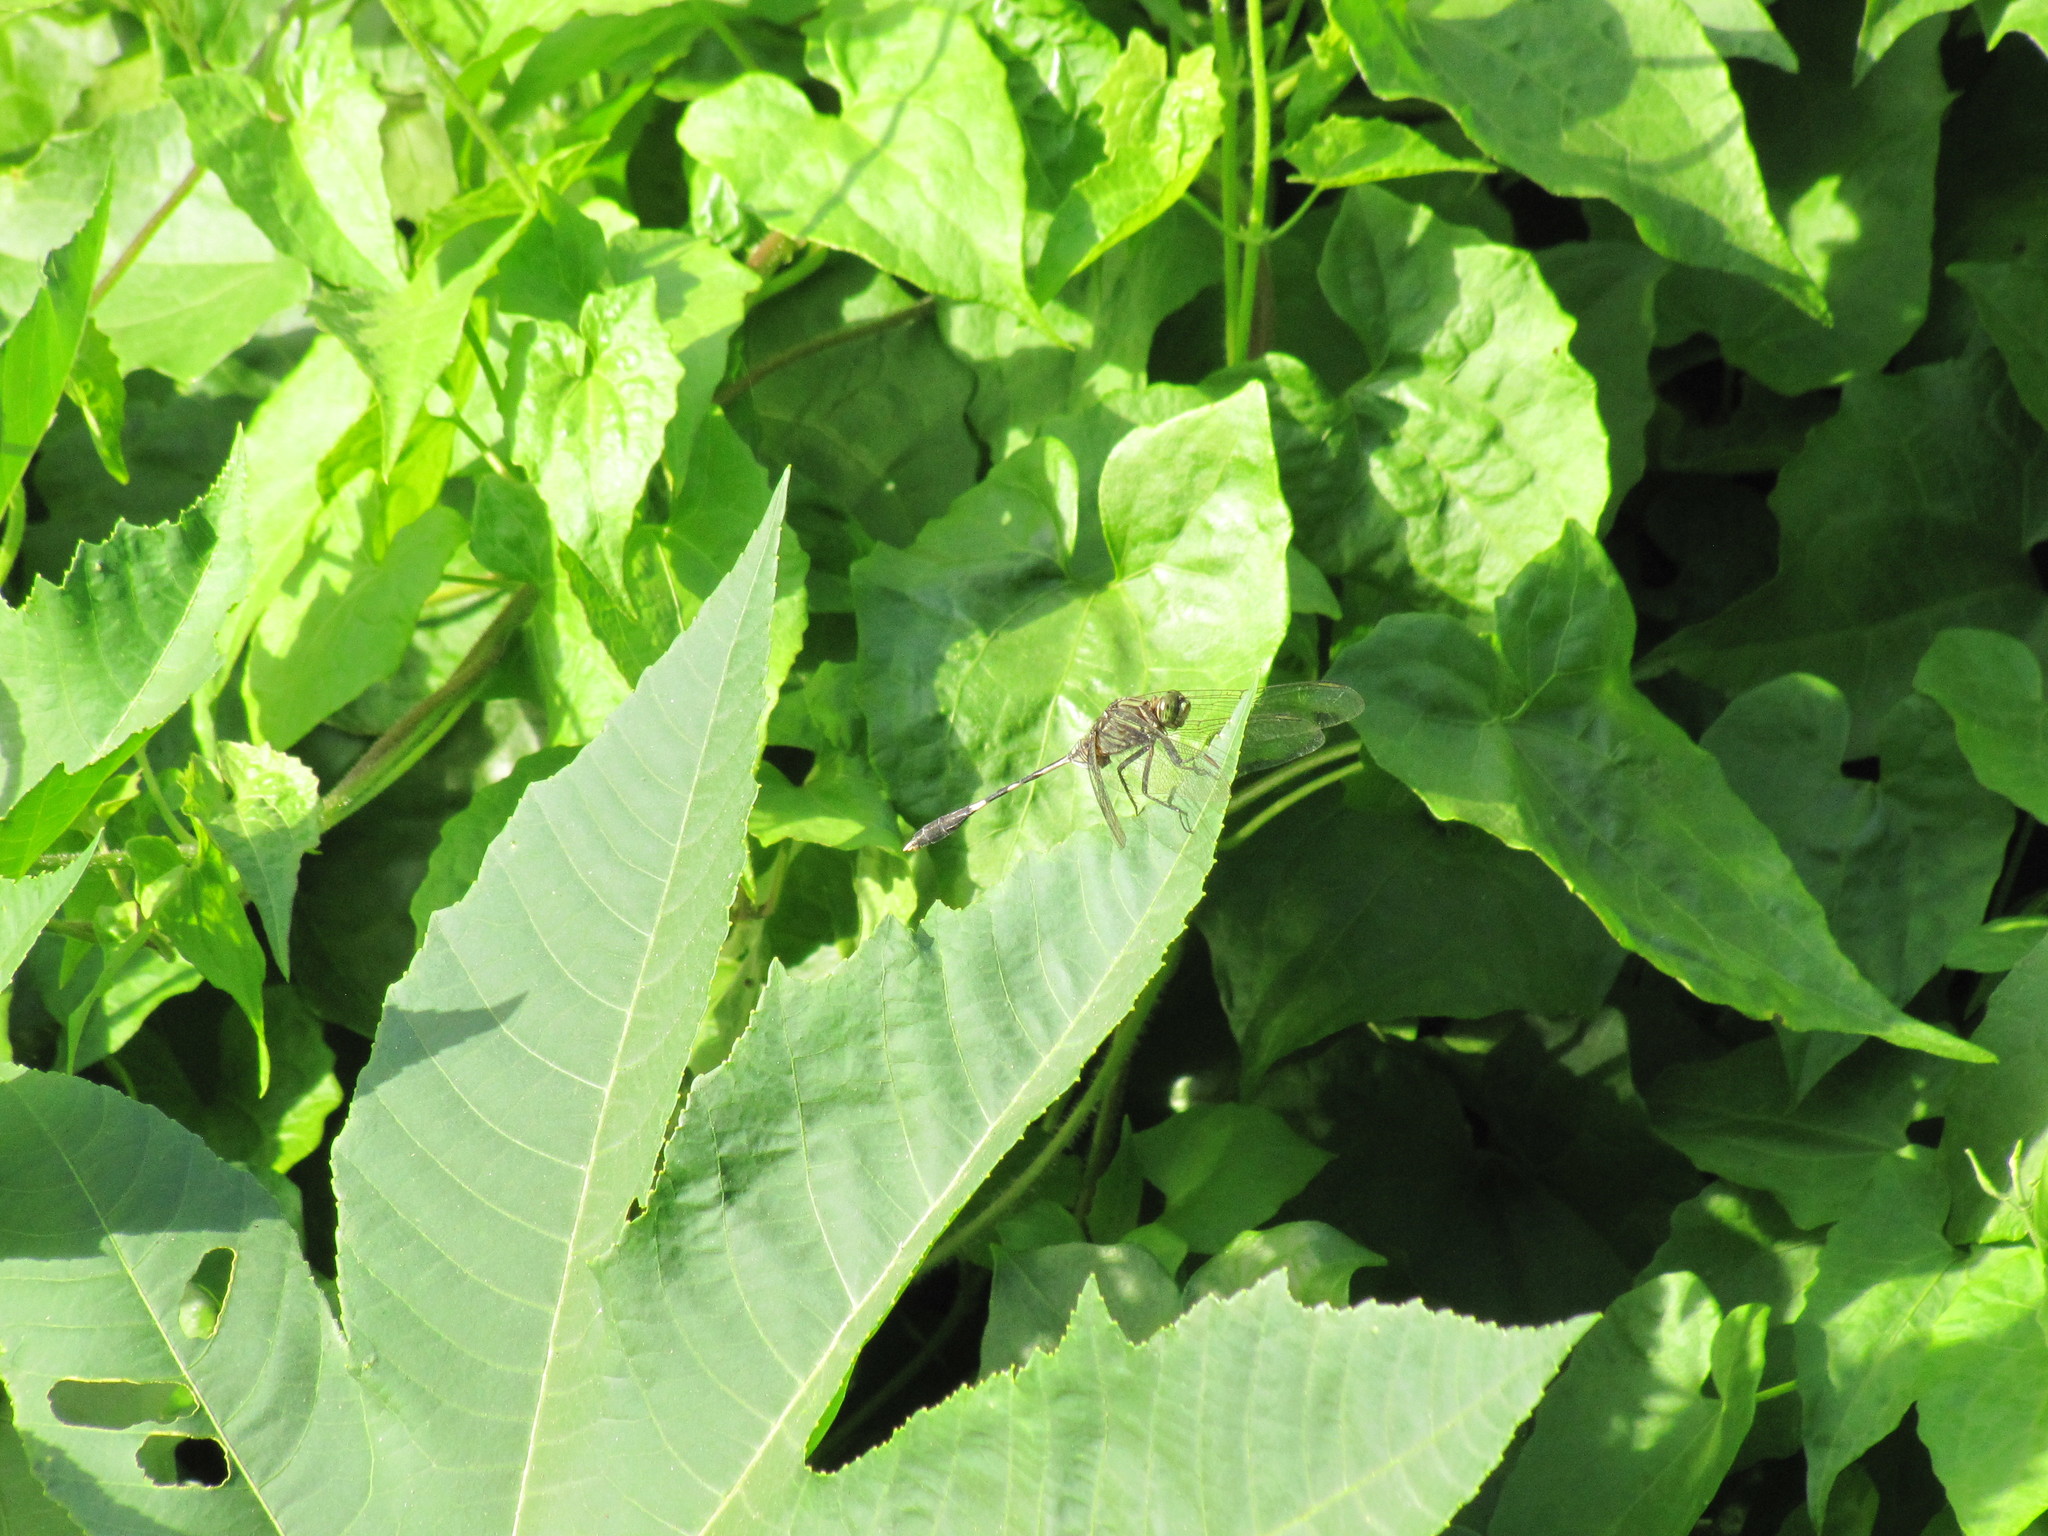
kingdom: Animalia
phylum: Arthropoda
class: Insecta
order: Odonata
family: Libellulidae
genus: Orthetrum
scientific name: Orthetrum sabina
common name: Slender skimmer
